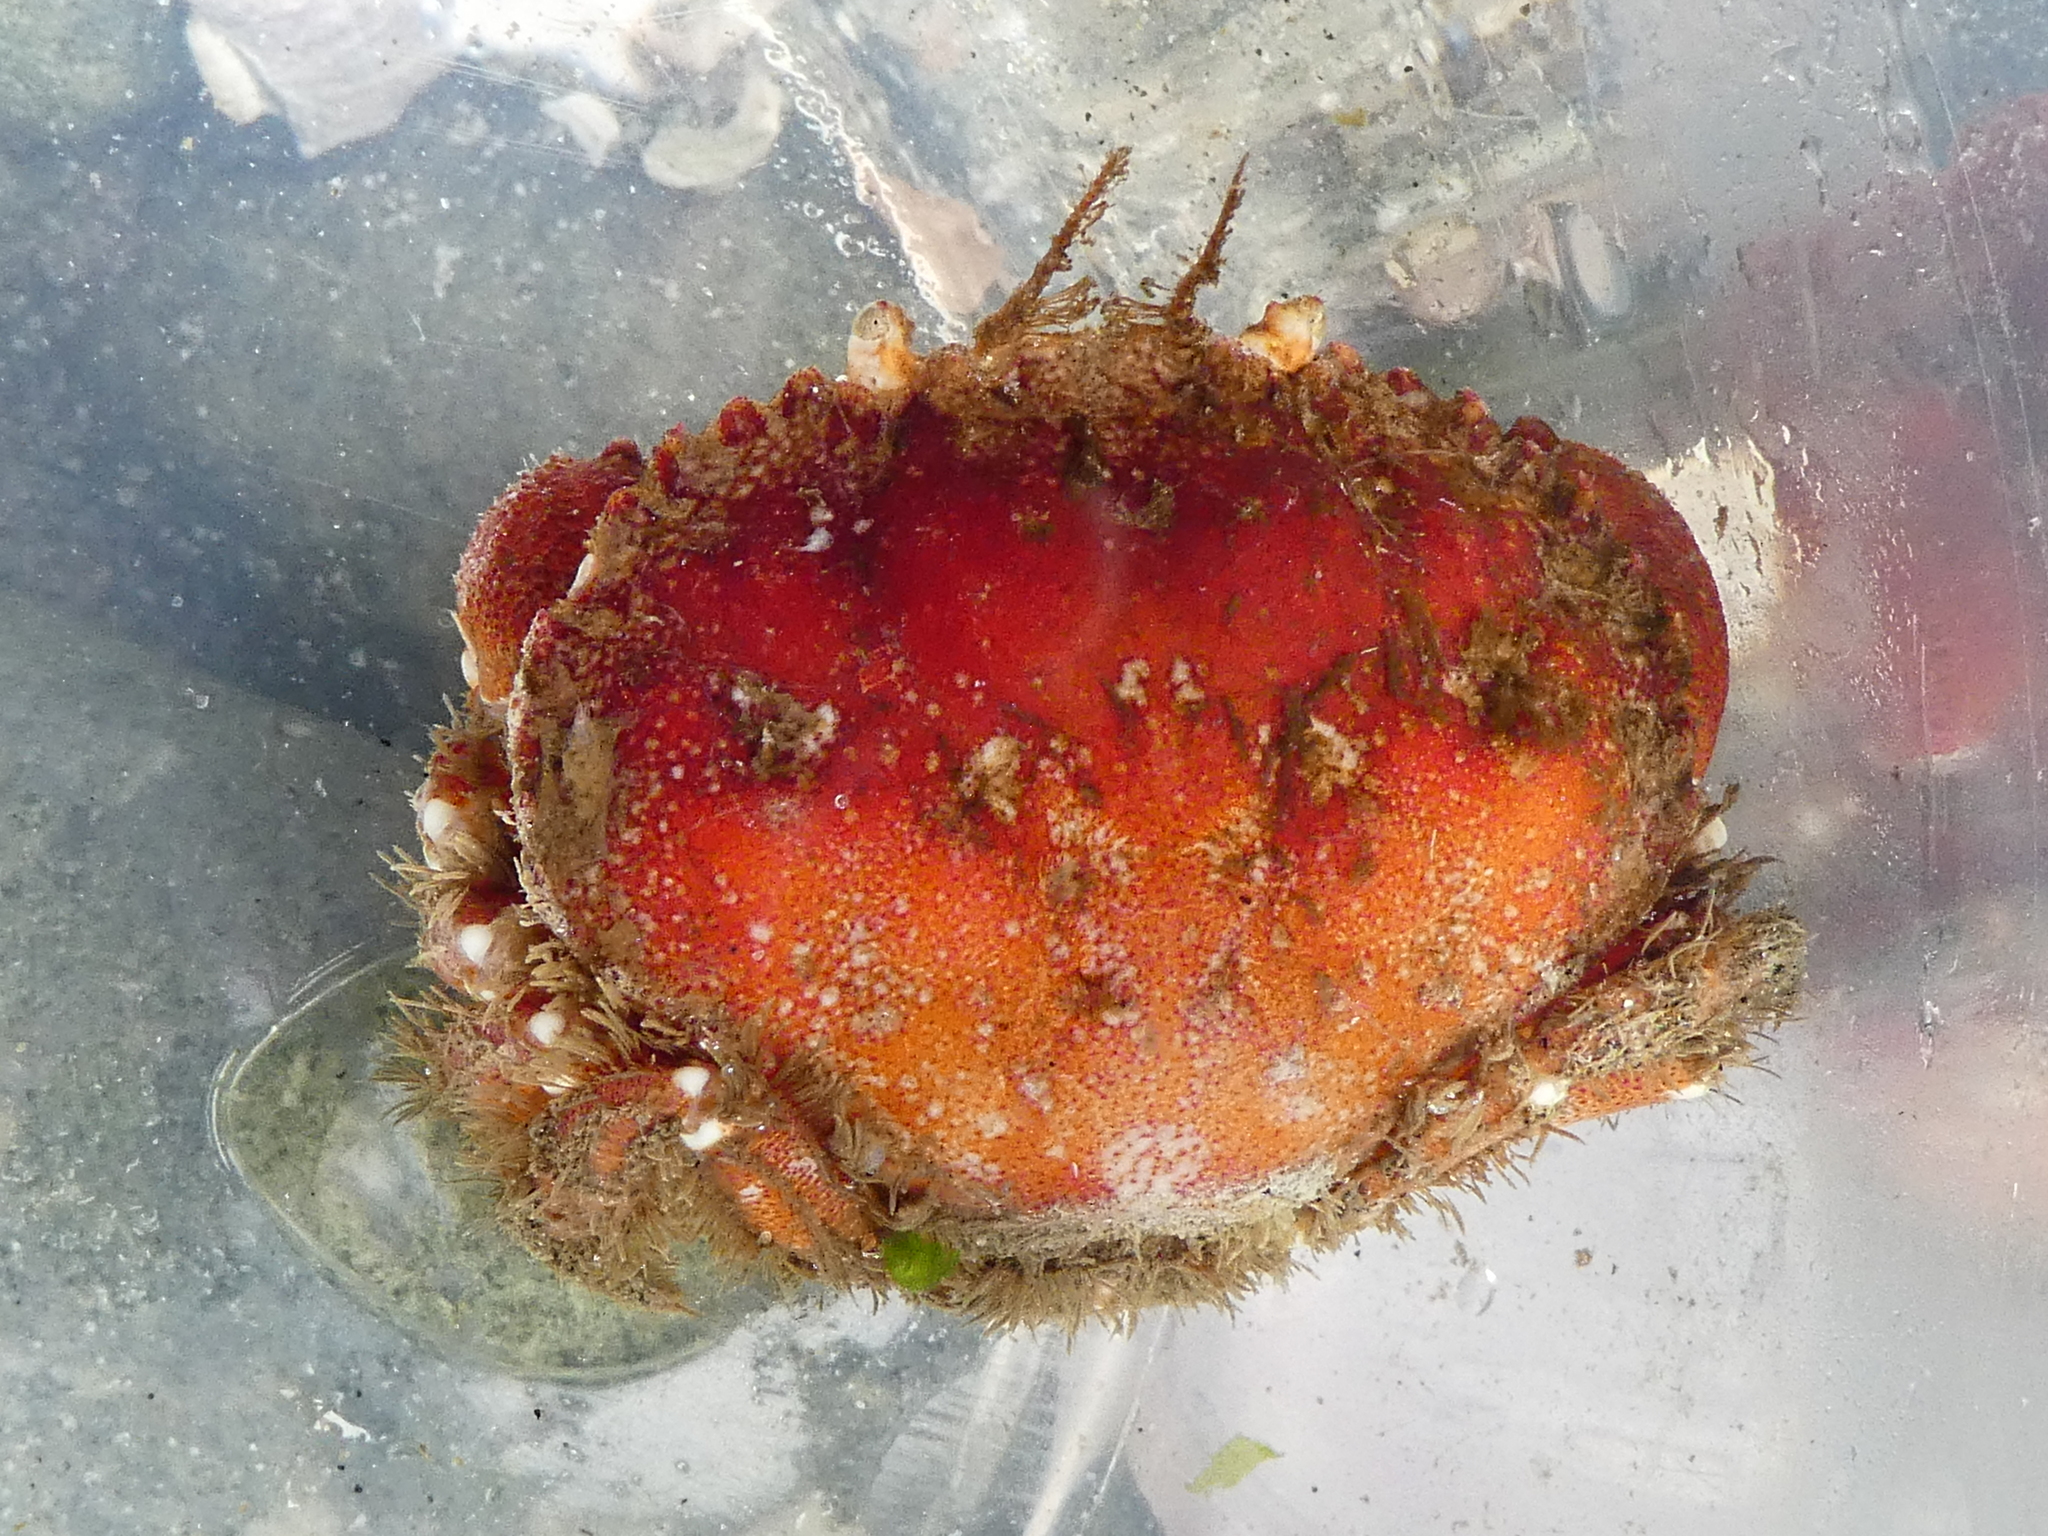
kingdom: Animalia
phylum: Arthropoda
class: Malacostraca
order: Decapoda
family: Cancridae
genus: Glebocarcinus
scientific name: Glebocarcinus oregonensis
